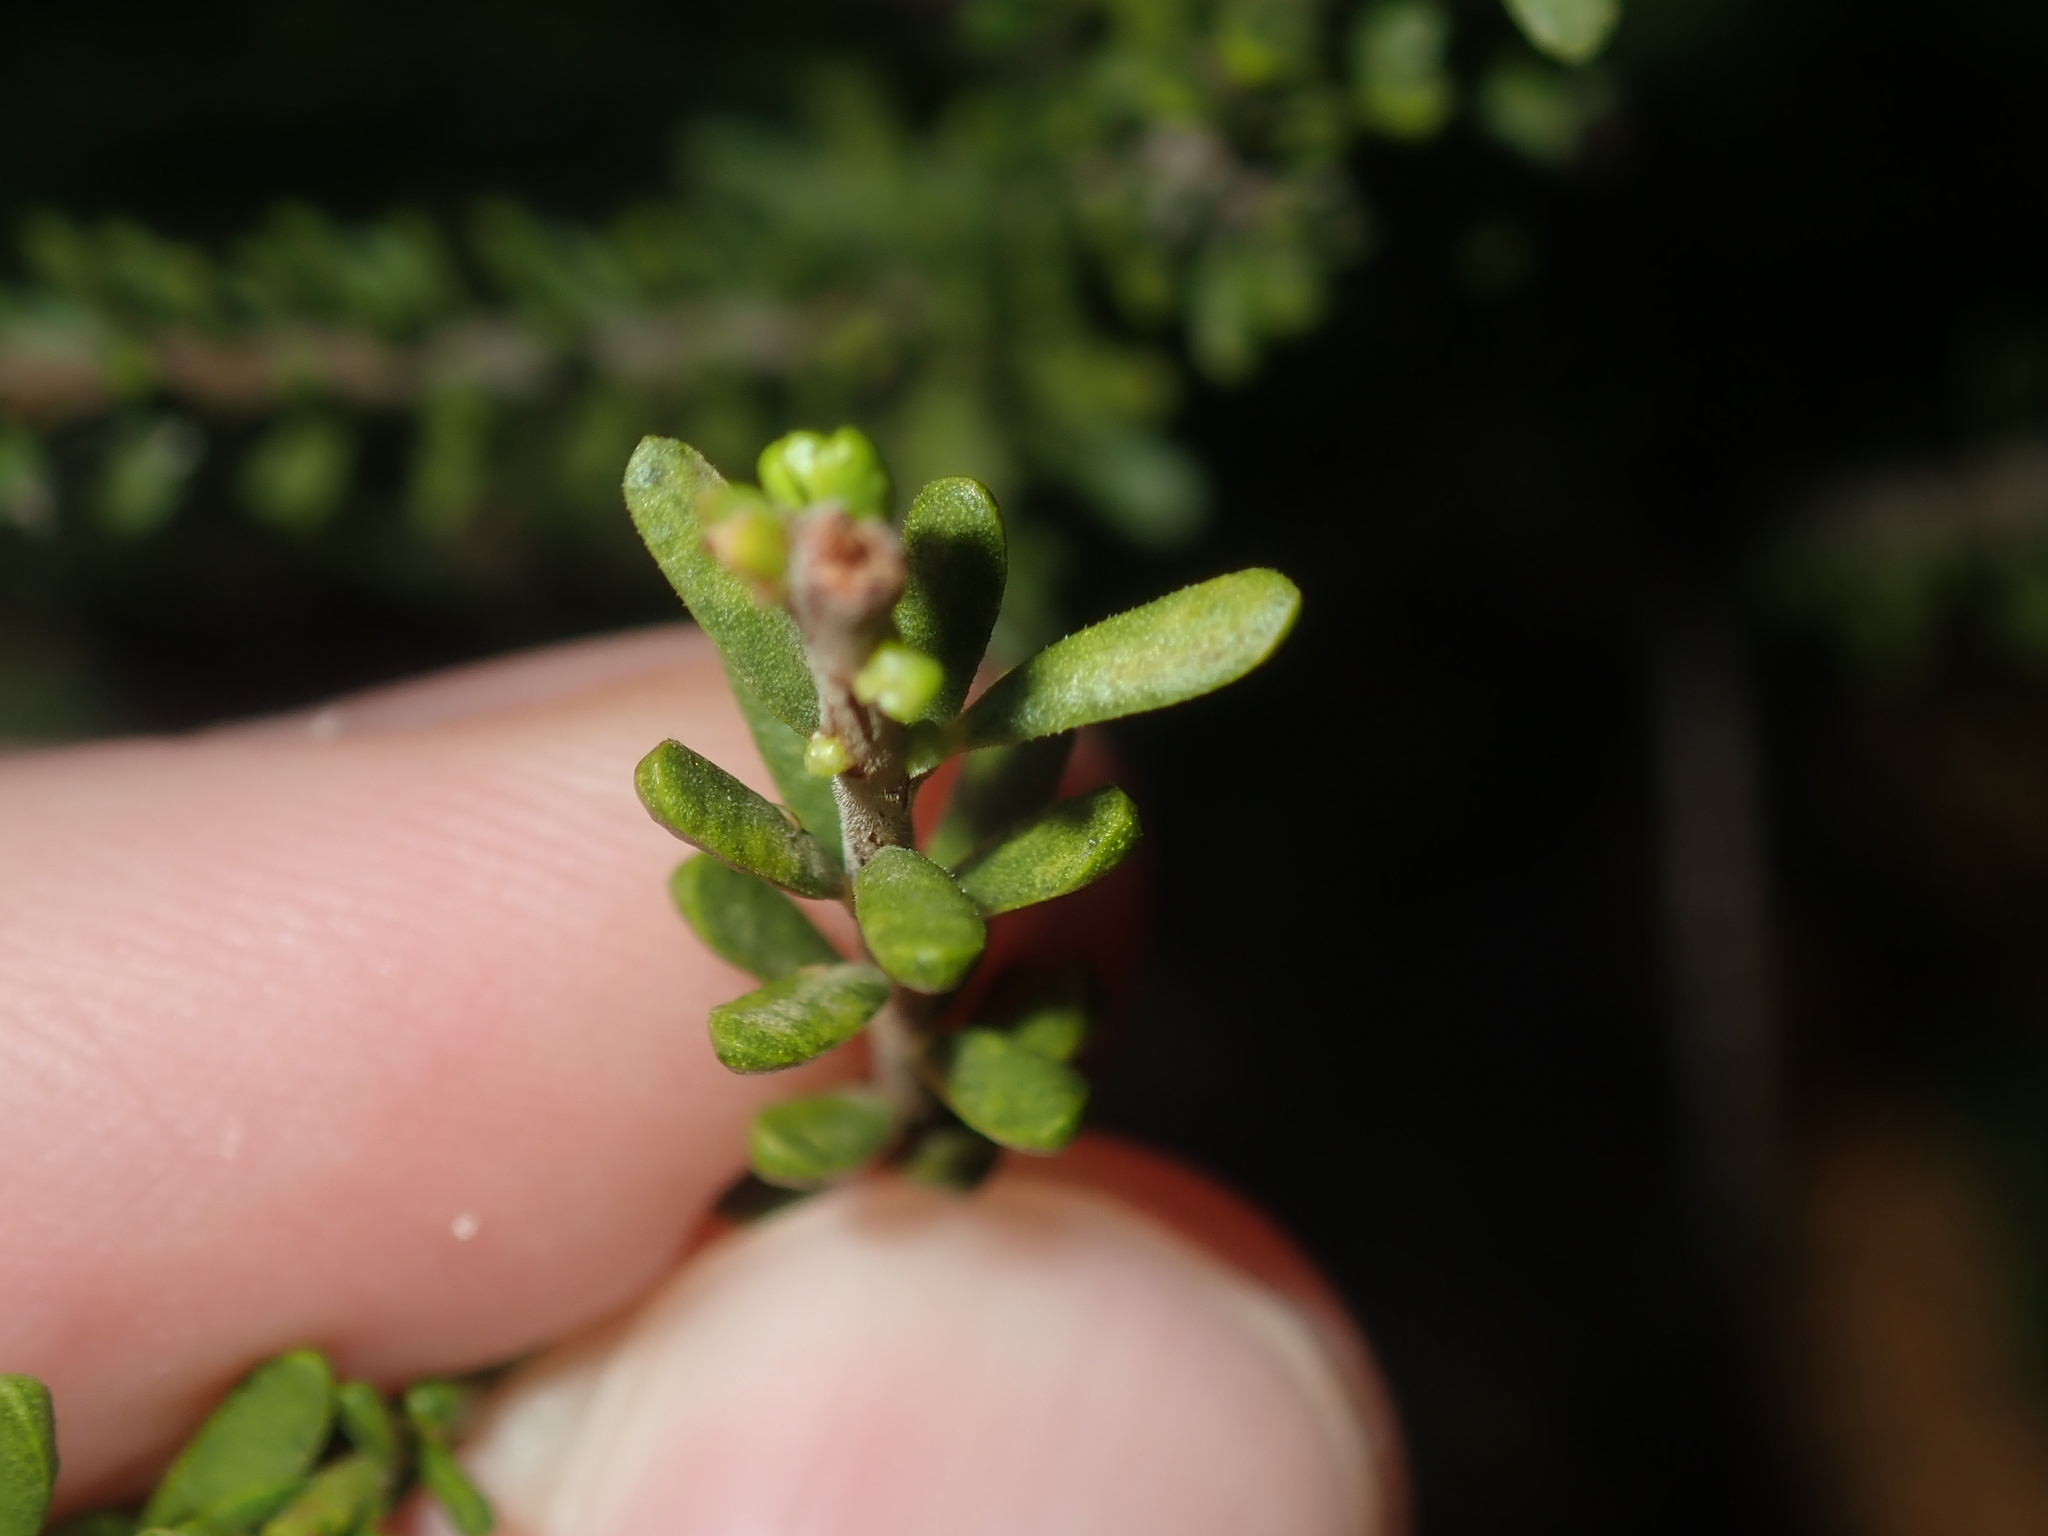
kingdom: Plantae
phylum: Tracheophyta
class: Magnoliopsida
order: Sapindales
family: Rutaceae
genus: Philotheca
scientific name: Philotheca sericea
